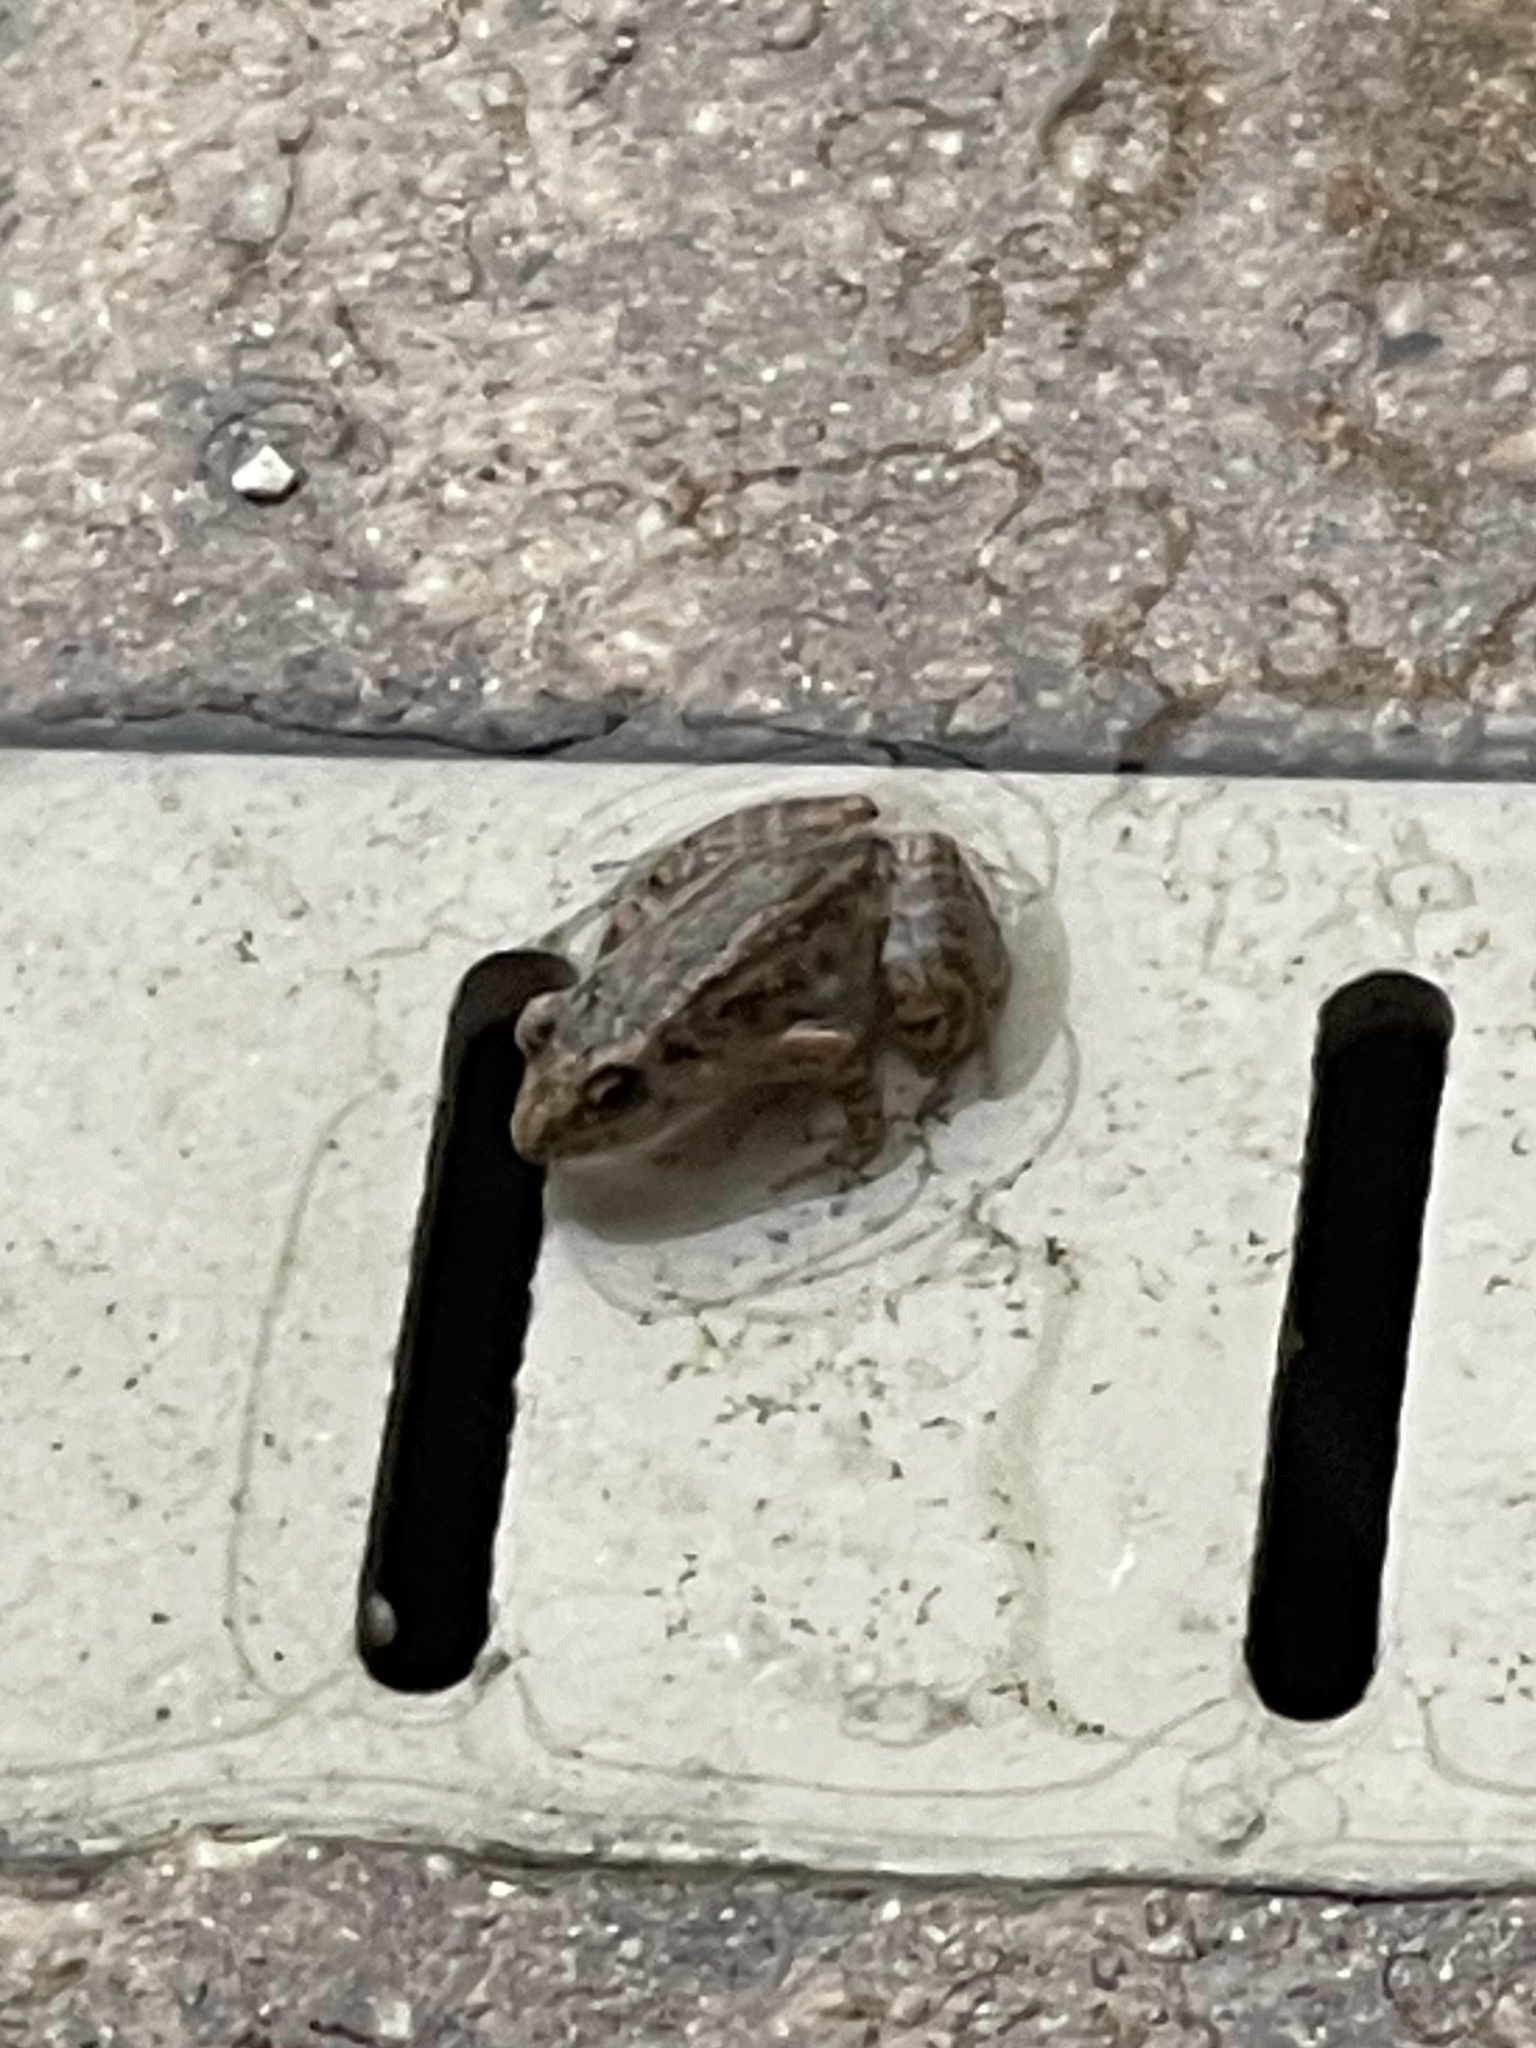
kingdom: Animalia
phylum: Chordata
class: Amphibia
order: Anura
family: Eleutherodactylidae
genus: Eleutherodactylus
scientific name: Eleutherodactylus planirostris
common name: Greenhouse frog
